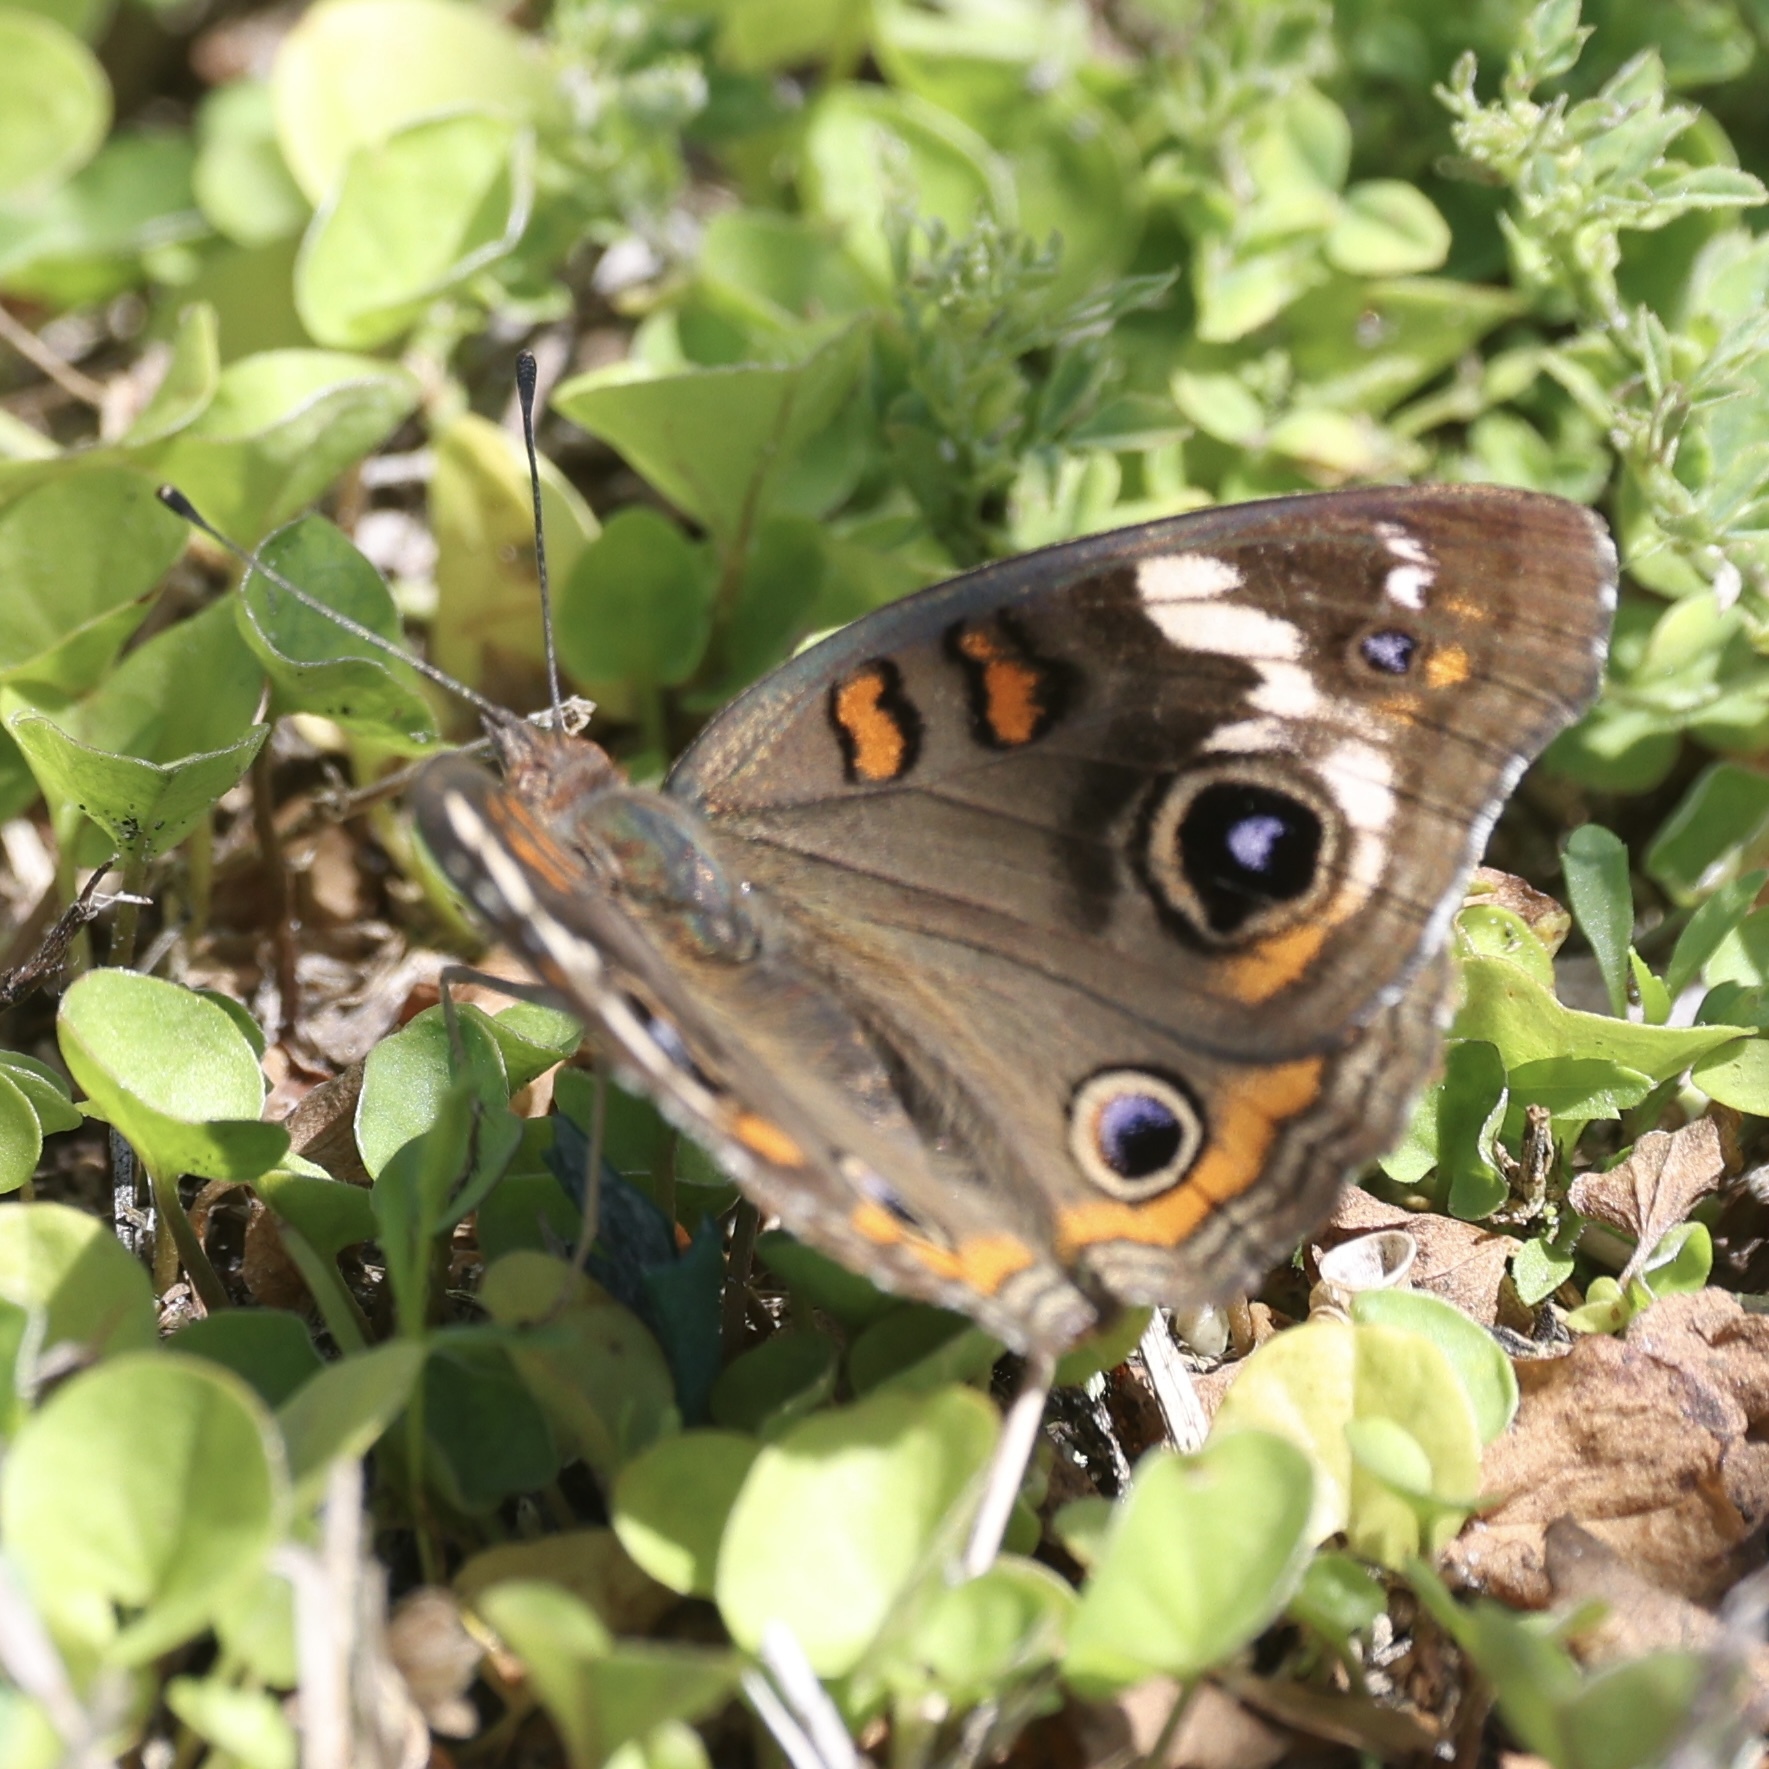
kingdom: Animalia
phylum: Arthropoda
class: Insecta
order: Lepidoptera
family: Nymphalidae
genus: Junonia
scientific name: Junonia coenia
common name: Common buckeye
